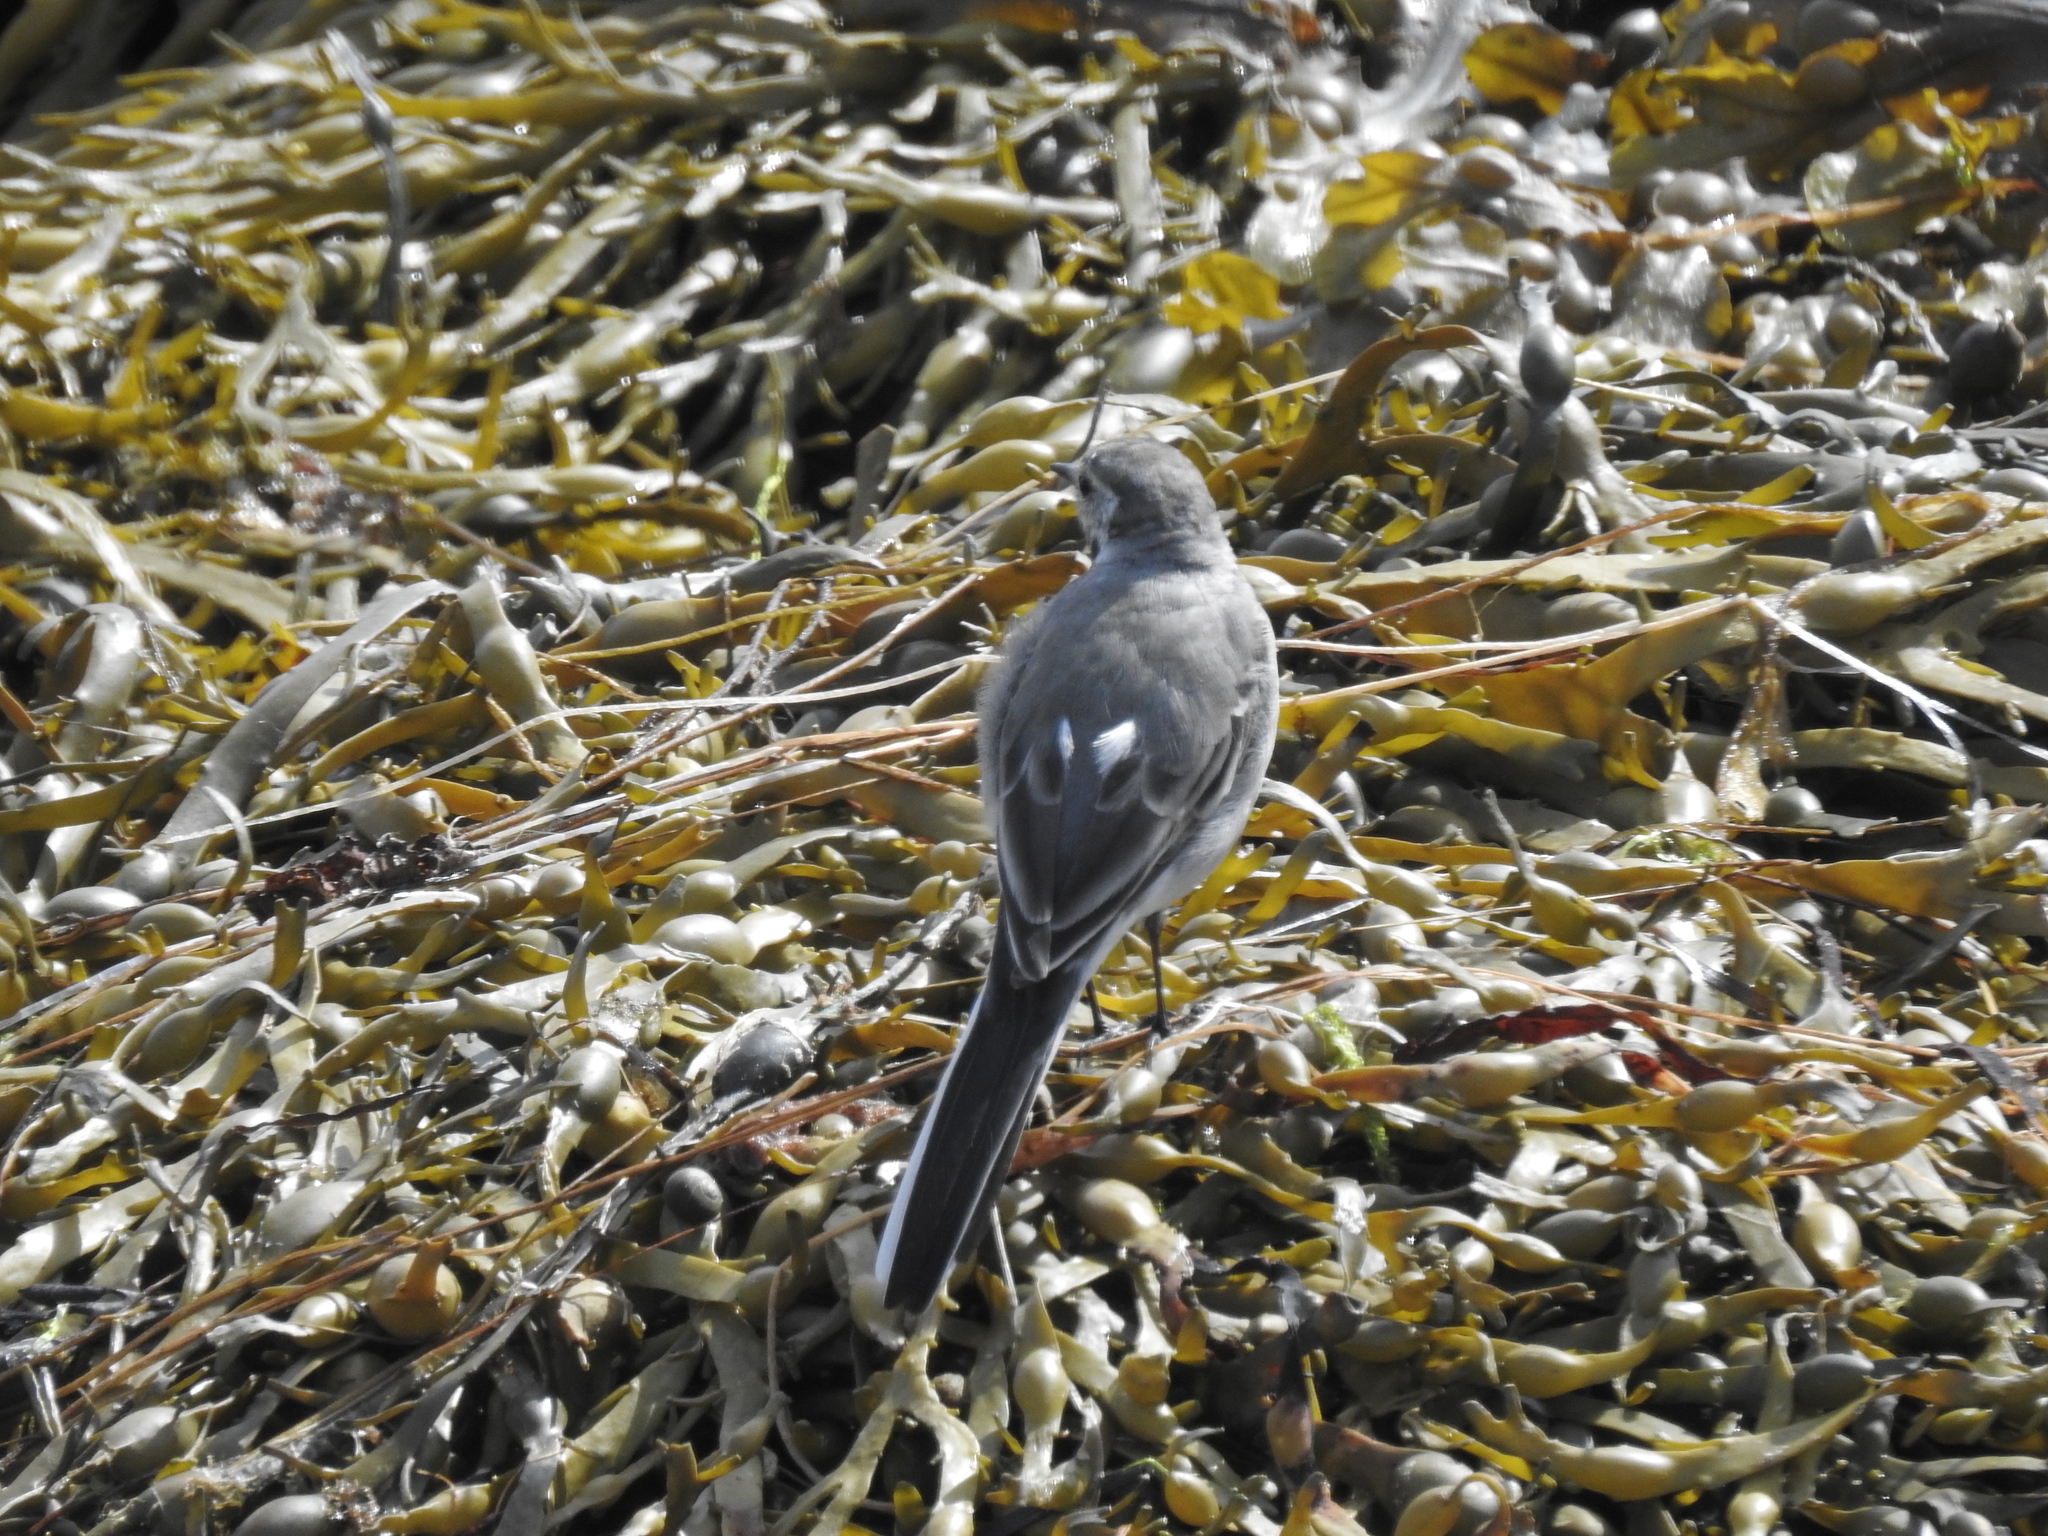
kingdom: Animalia
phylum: Chordata
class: Aves
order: Passeriformes
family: Motacillidae
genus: Motacilla
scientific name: Motacilla alba
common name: White wagtail
